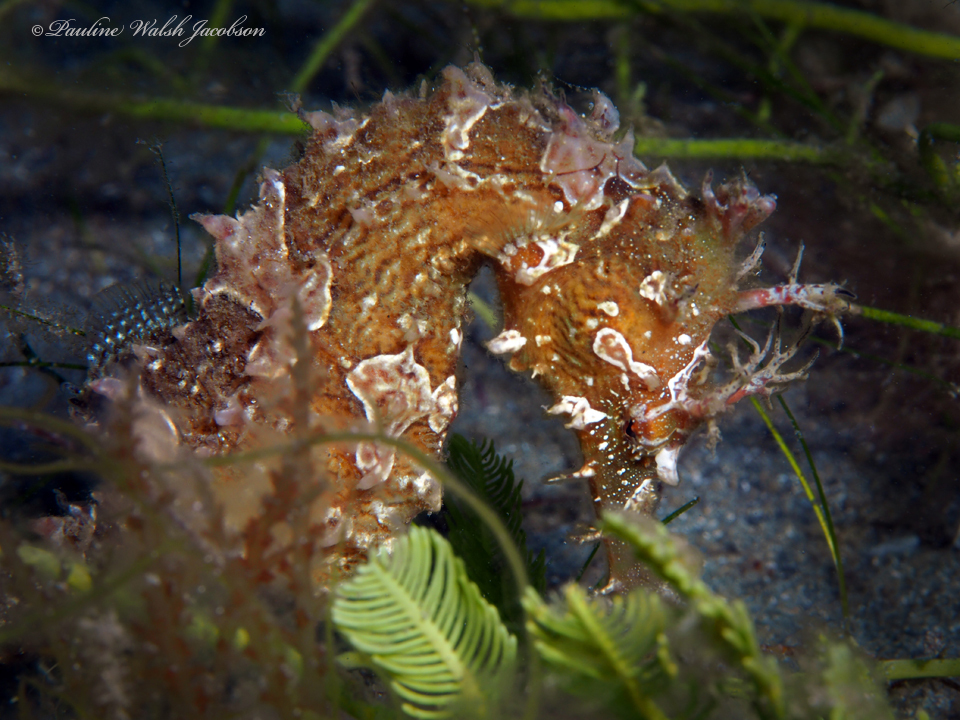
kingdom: Animalia
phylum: Chordata
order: Syngnathiformes
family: Syngnathidae
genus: Hippocampus
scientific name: Hippocampus erectus
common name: Lined seahorse
